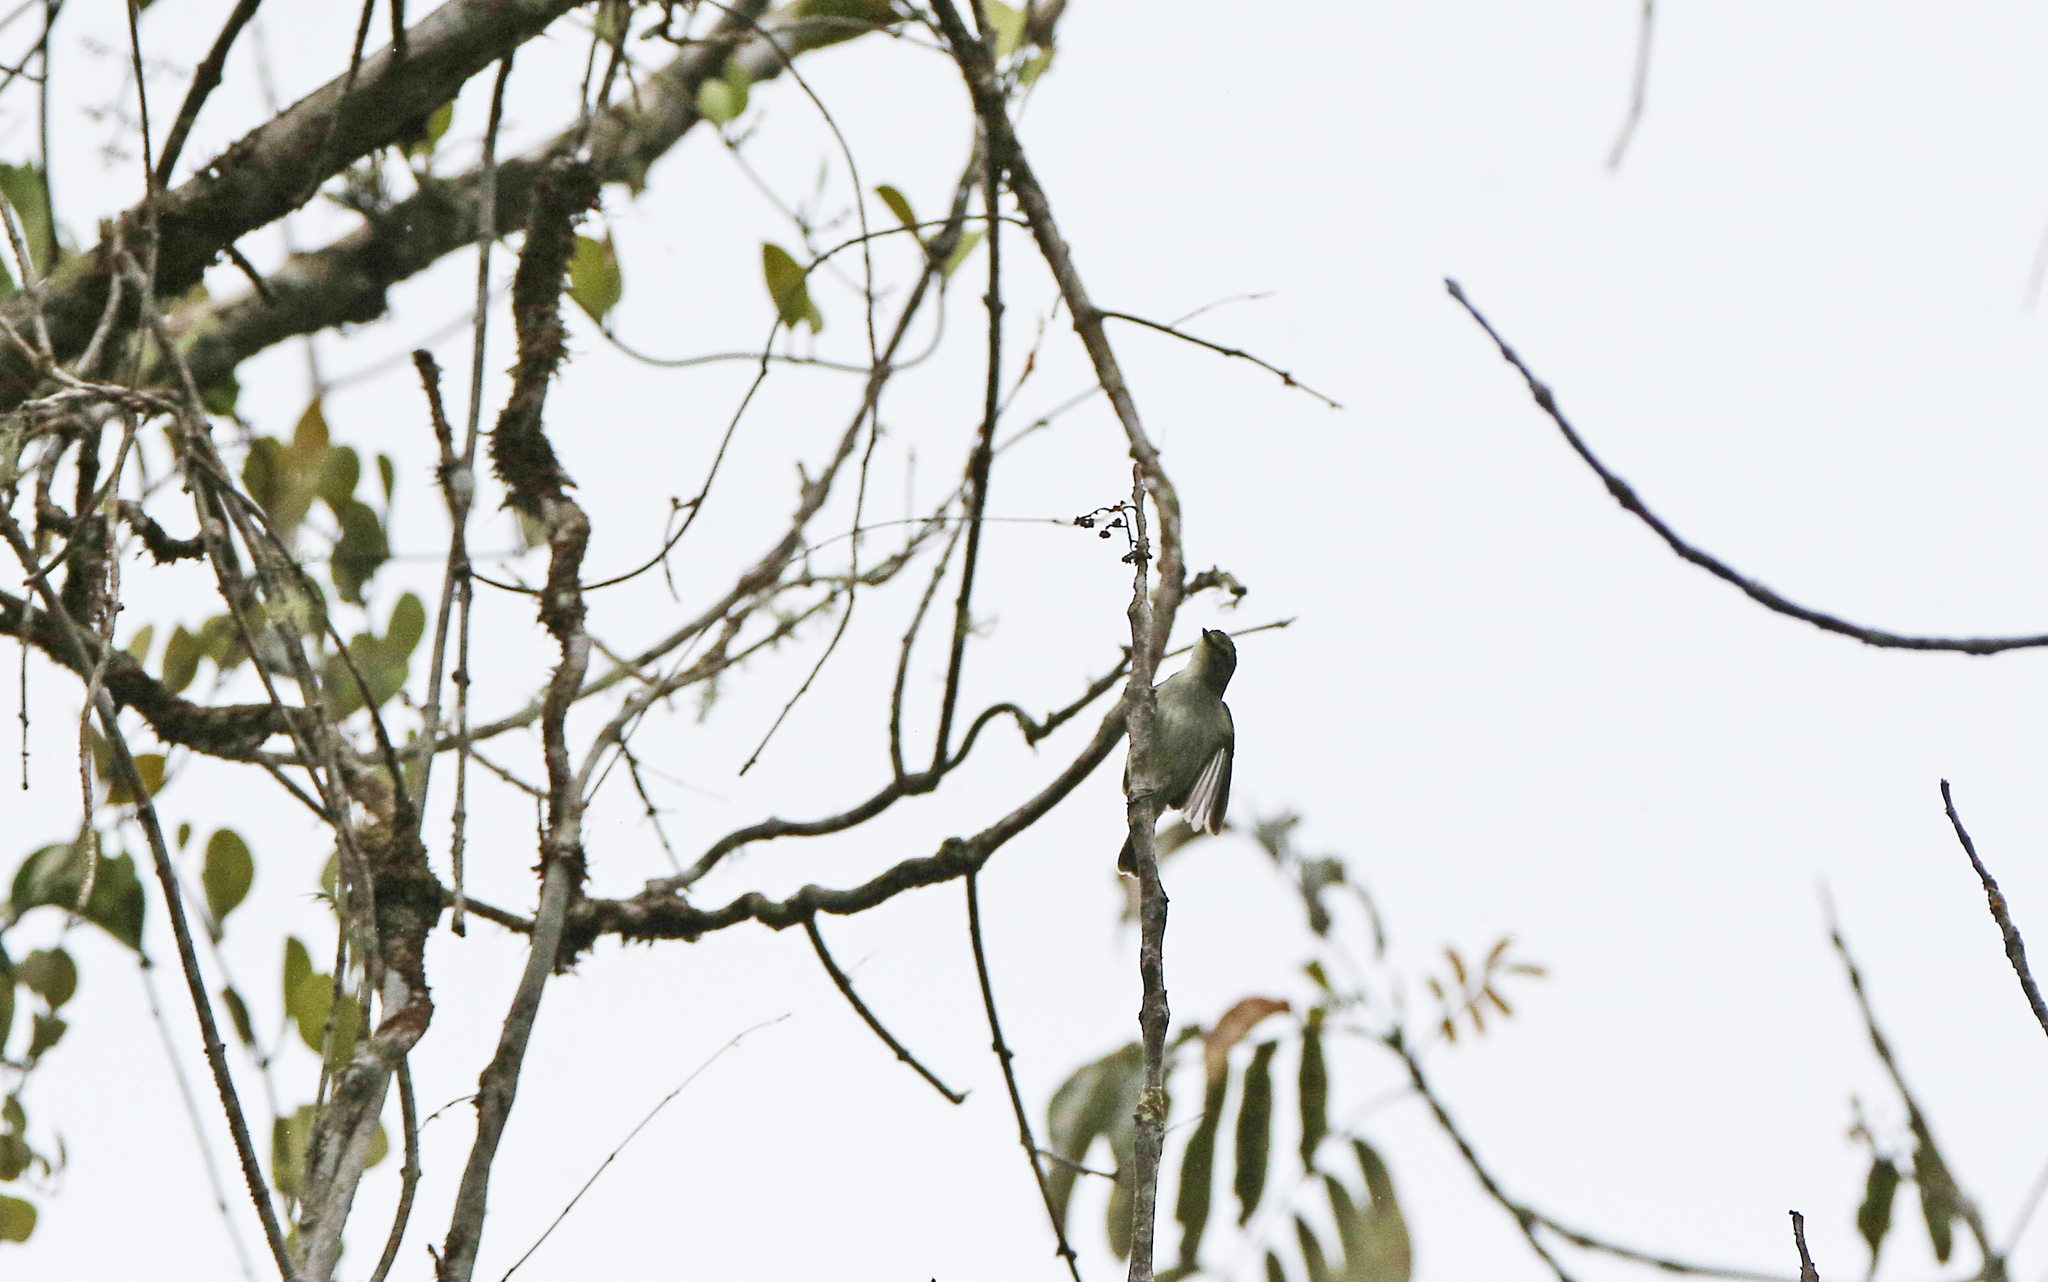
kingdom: Animalia
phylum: Chordata
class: Aves
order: Passeriformes
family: Tyrannidae
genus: Zimmerius
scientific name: Zimmerius chrysops
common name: Golden-faced tyrannulet
